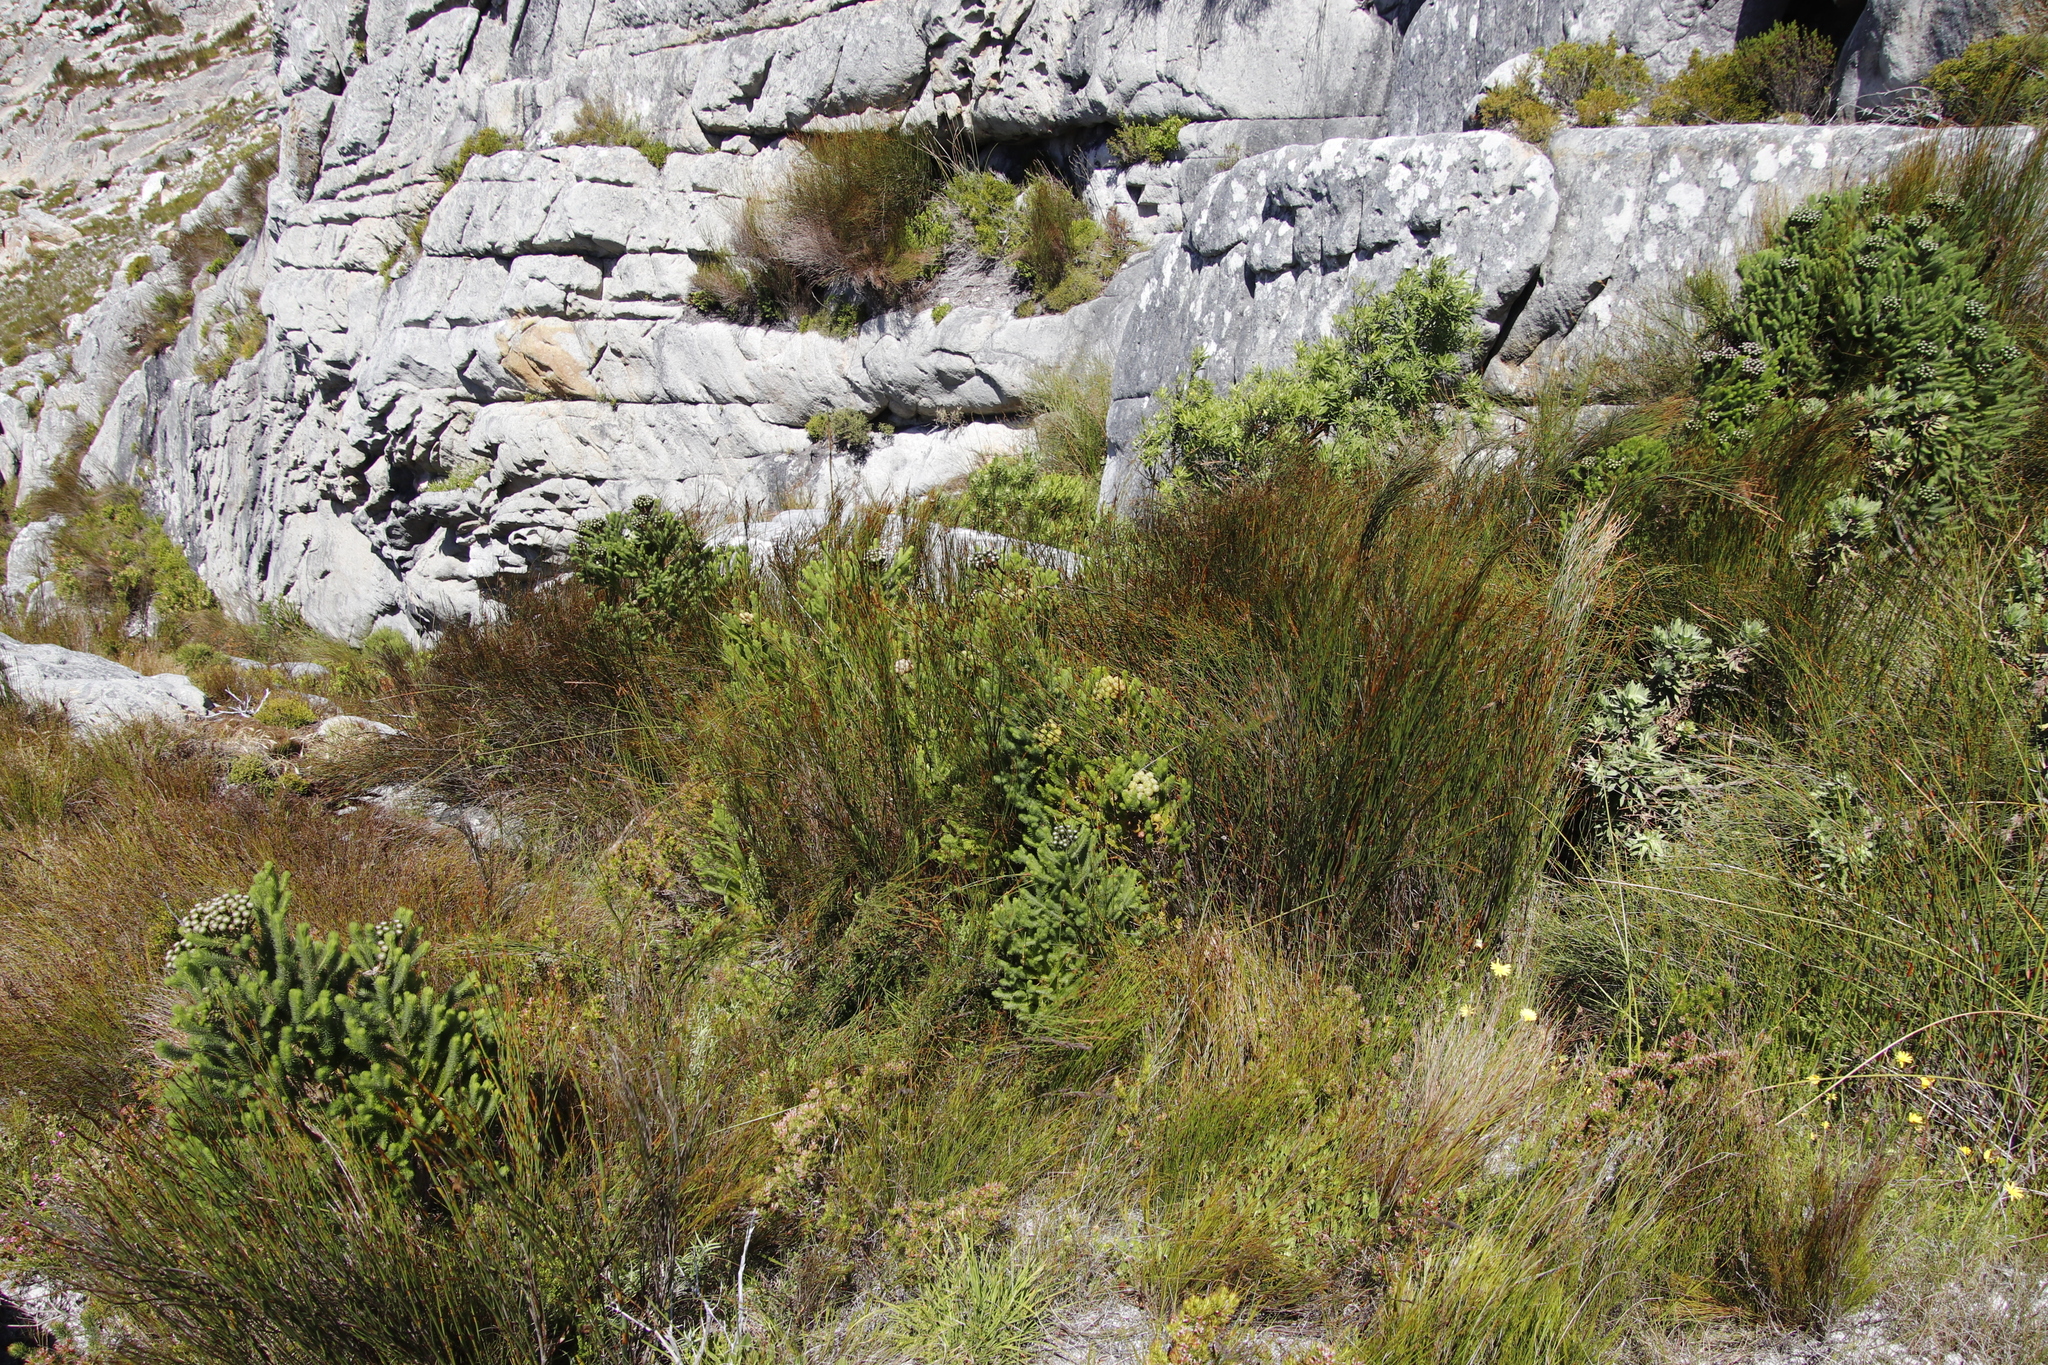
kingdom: Plantae
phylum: Tracheophyta
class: Magnoliopsida
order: Bruniales
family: Bruniaceae
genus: Berzelia
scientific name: Berzelia albiflora
